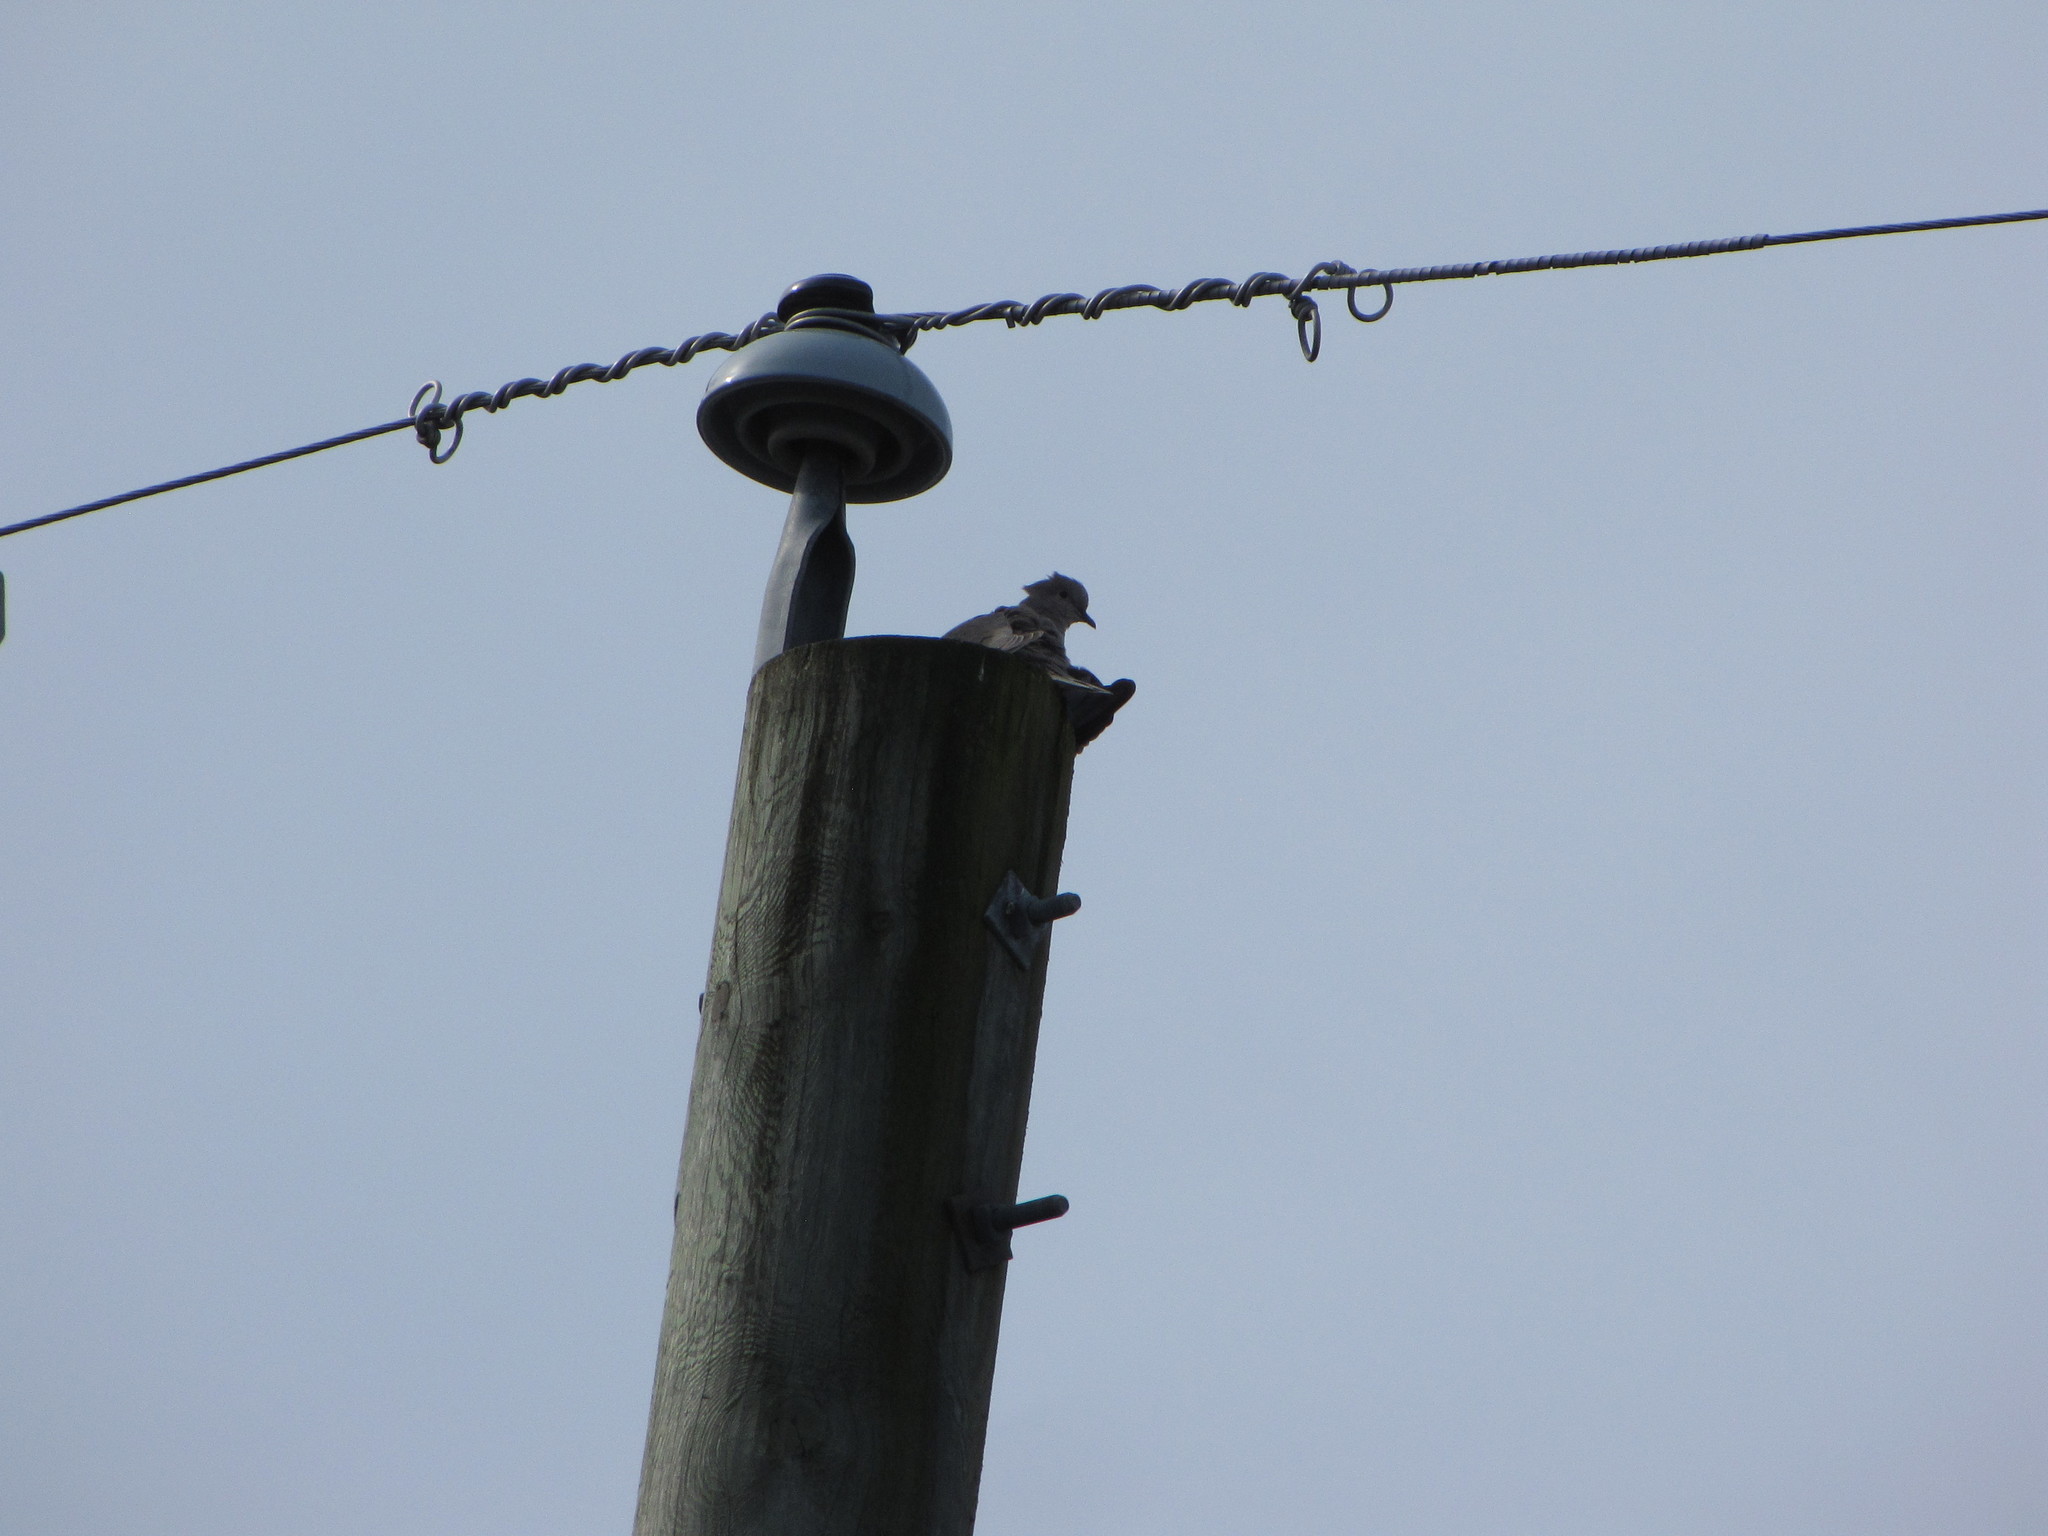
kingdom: Animalia
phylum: Chordata
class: Aves
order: Columbiformes
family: Columbidae
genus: Streptopelia
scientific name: Streptopelia decaocto
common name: Eurasian collared dove
